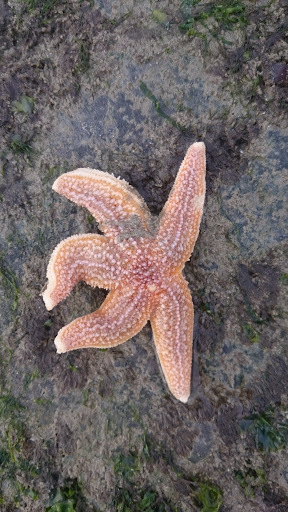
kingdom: Animalia
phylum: Echinodermata
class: Asteroidea
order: Forcipulatida
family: Asteriidae
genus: Asterias
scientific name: Asterias rubens
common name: Common starfish
